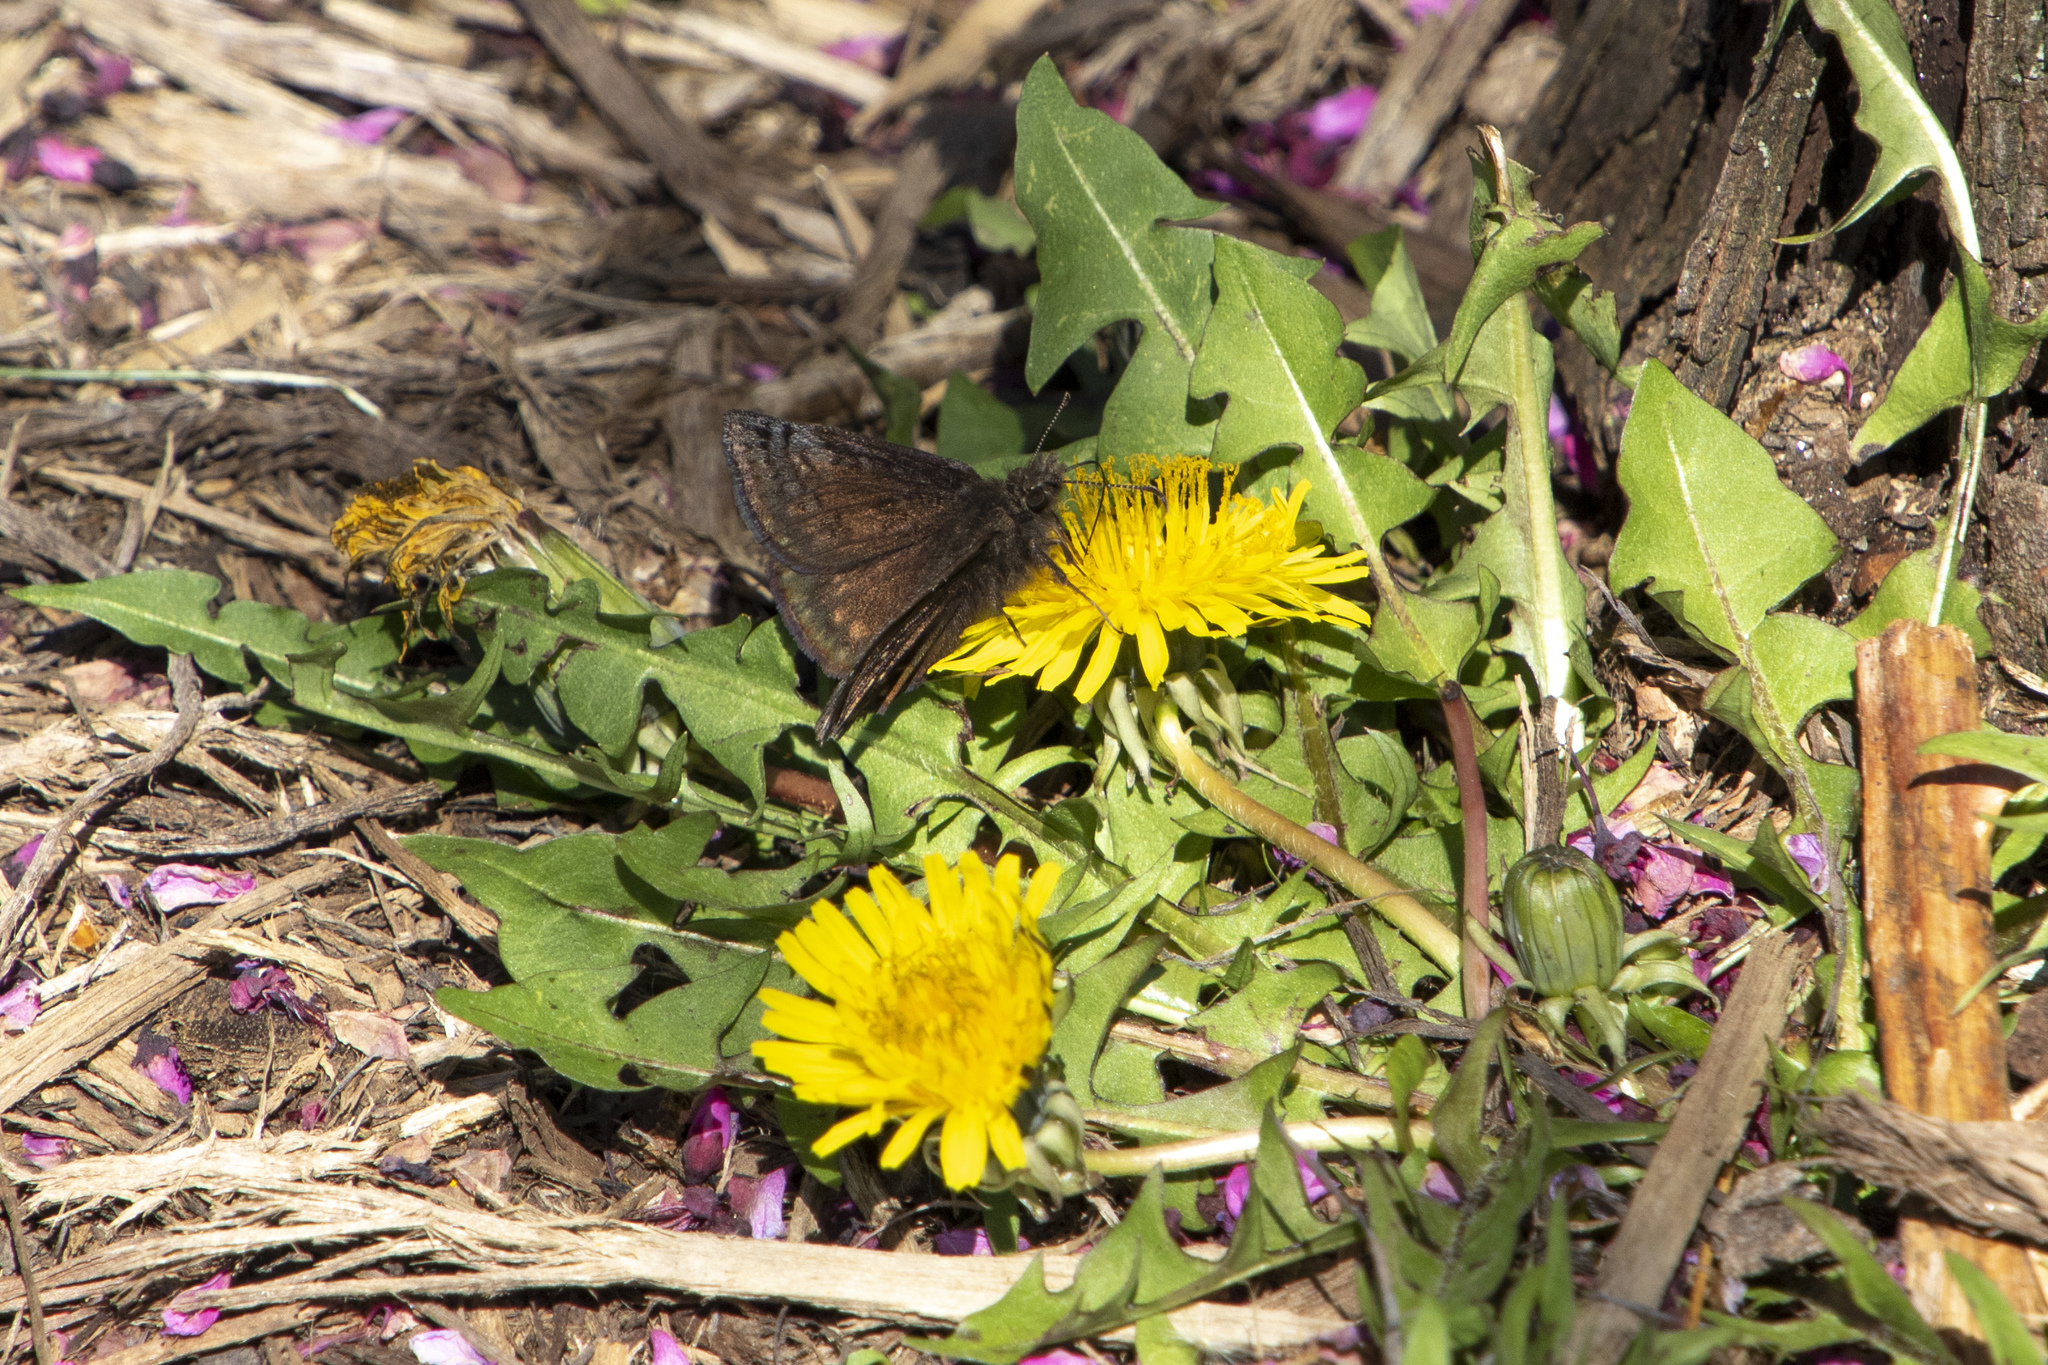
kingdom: Animalia
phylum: Arthropoda
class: Insecta
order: Lepidoptera
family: Hesperiidae
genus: Erynnis
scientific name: Erynnis brizo
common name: Sleepy duskywing
